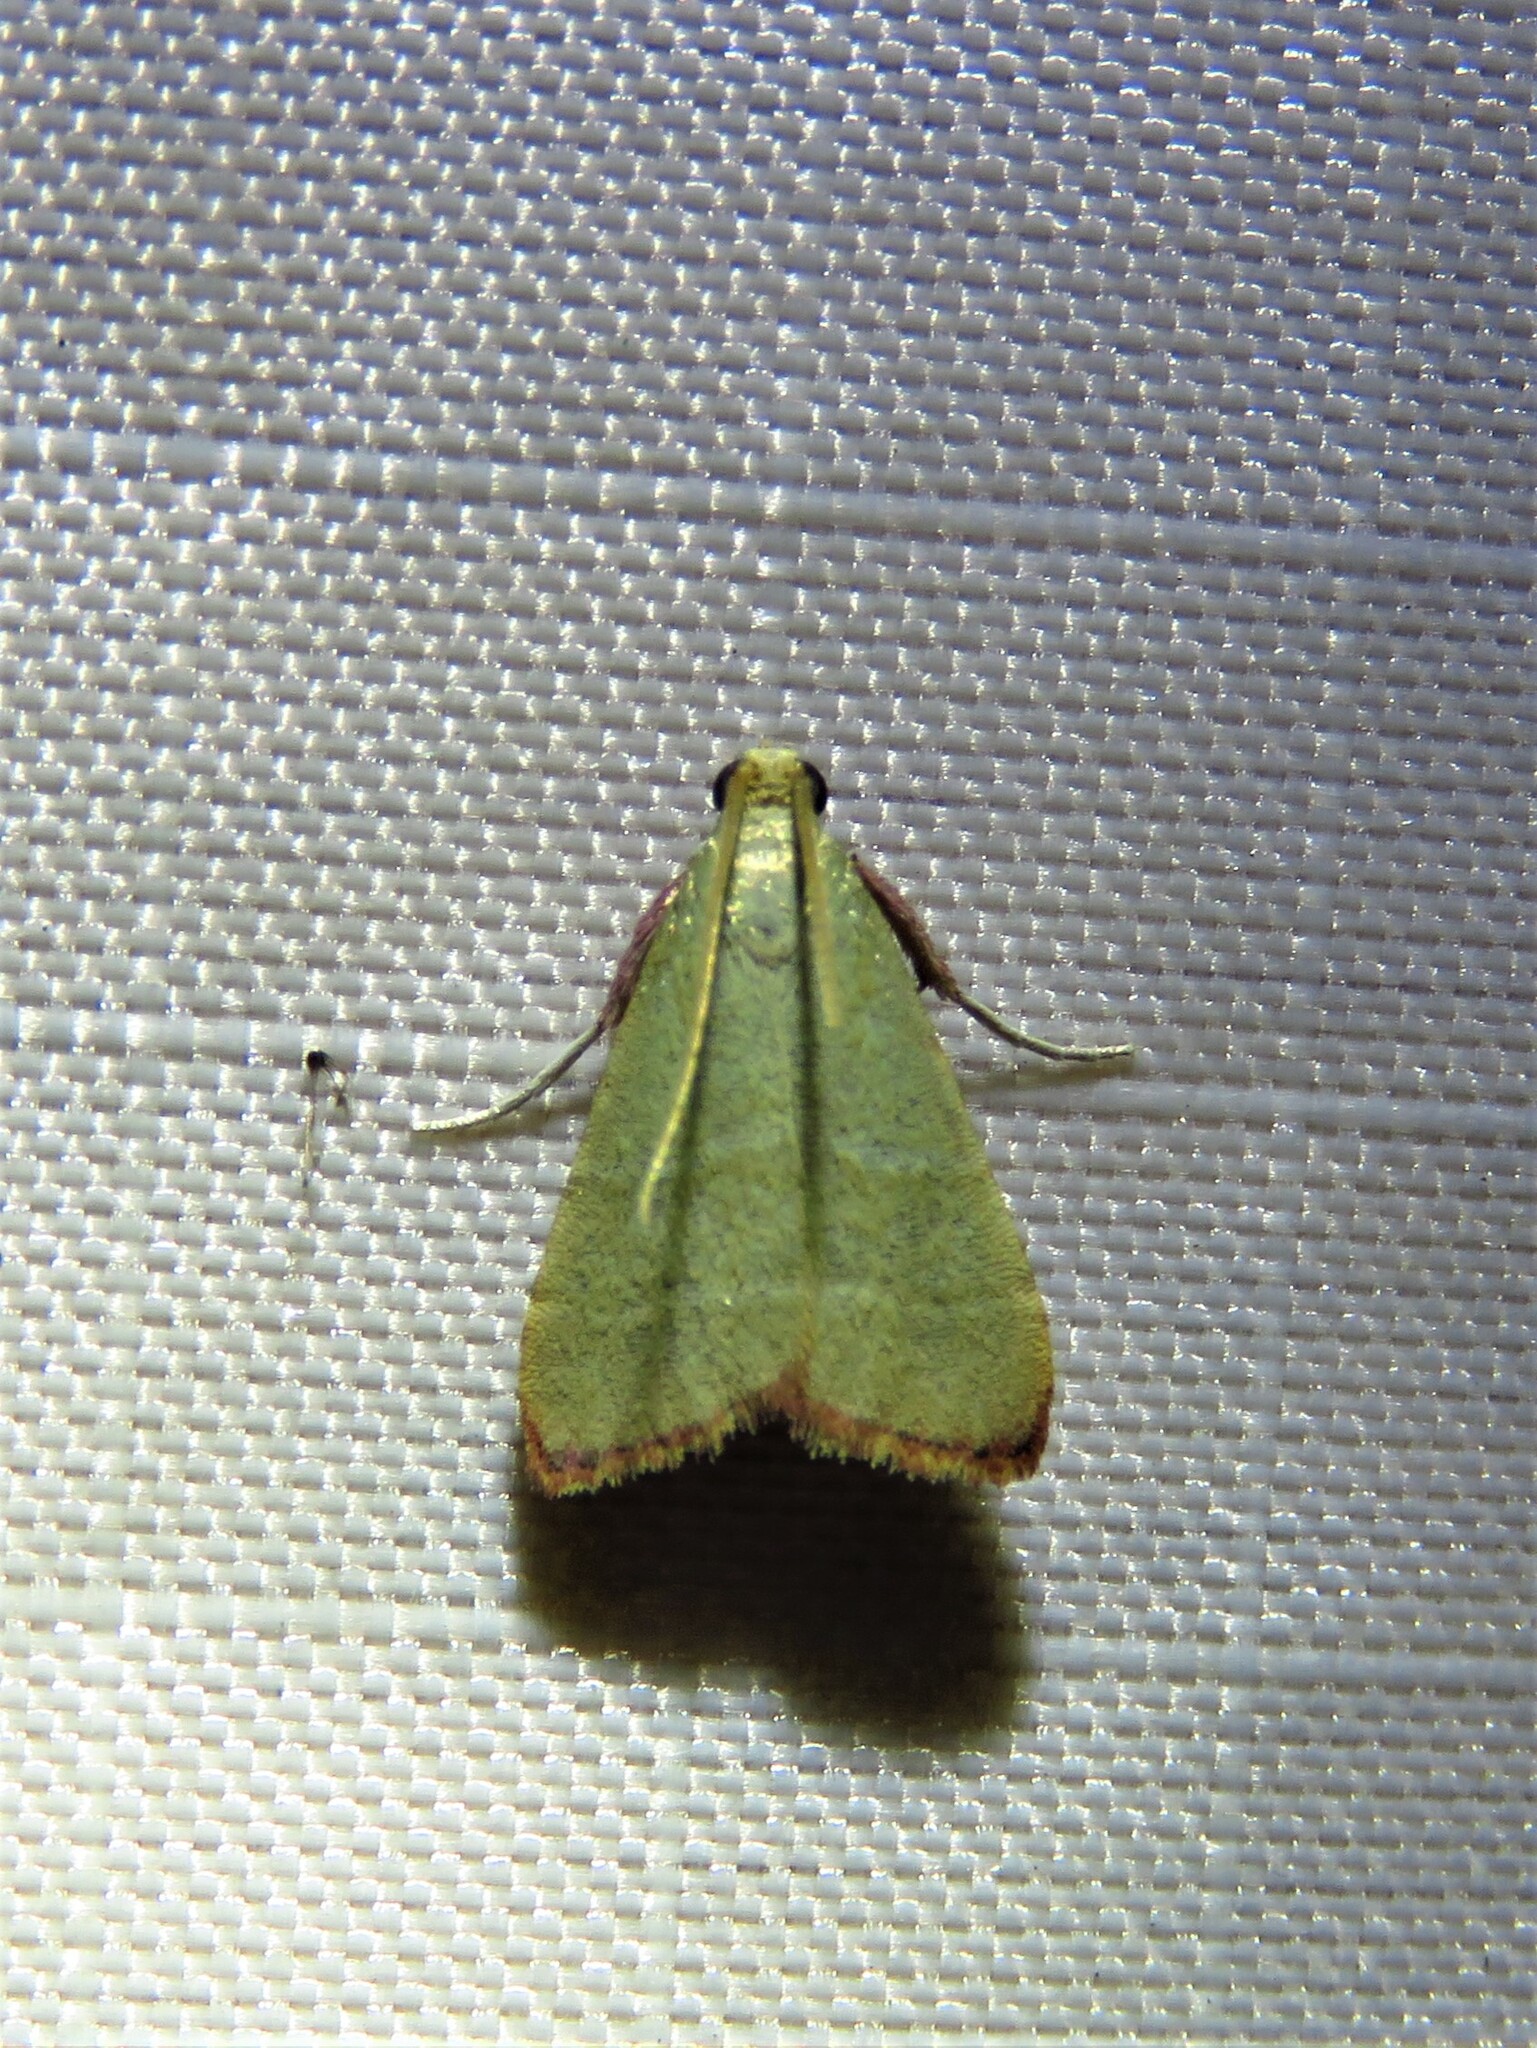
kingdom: Animalia
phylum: Arthropoda
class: Insecta
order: Lepidoptera
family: Pyralidae
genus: Arta
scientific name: Arta olivalis
